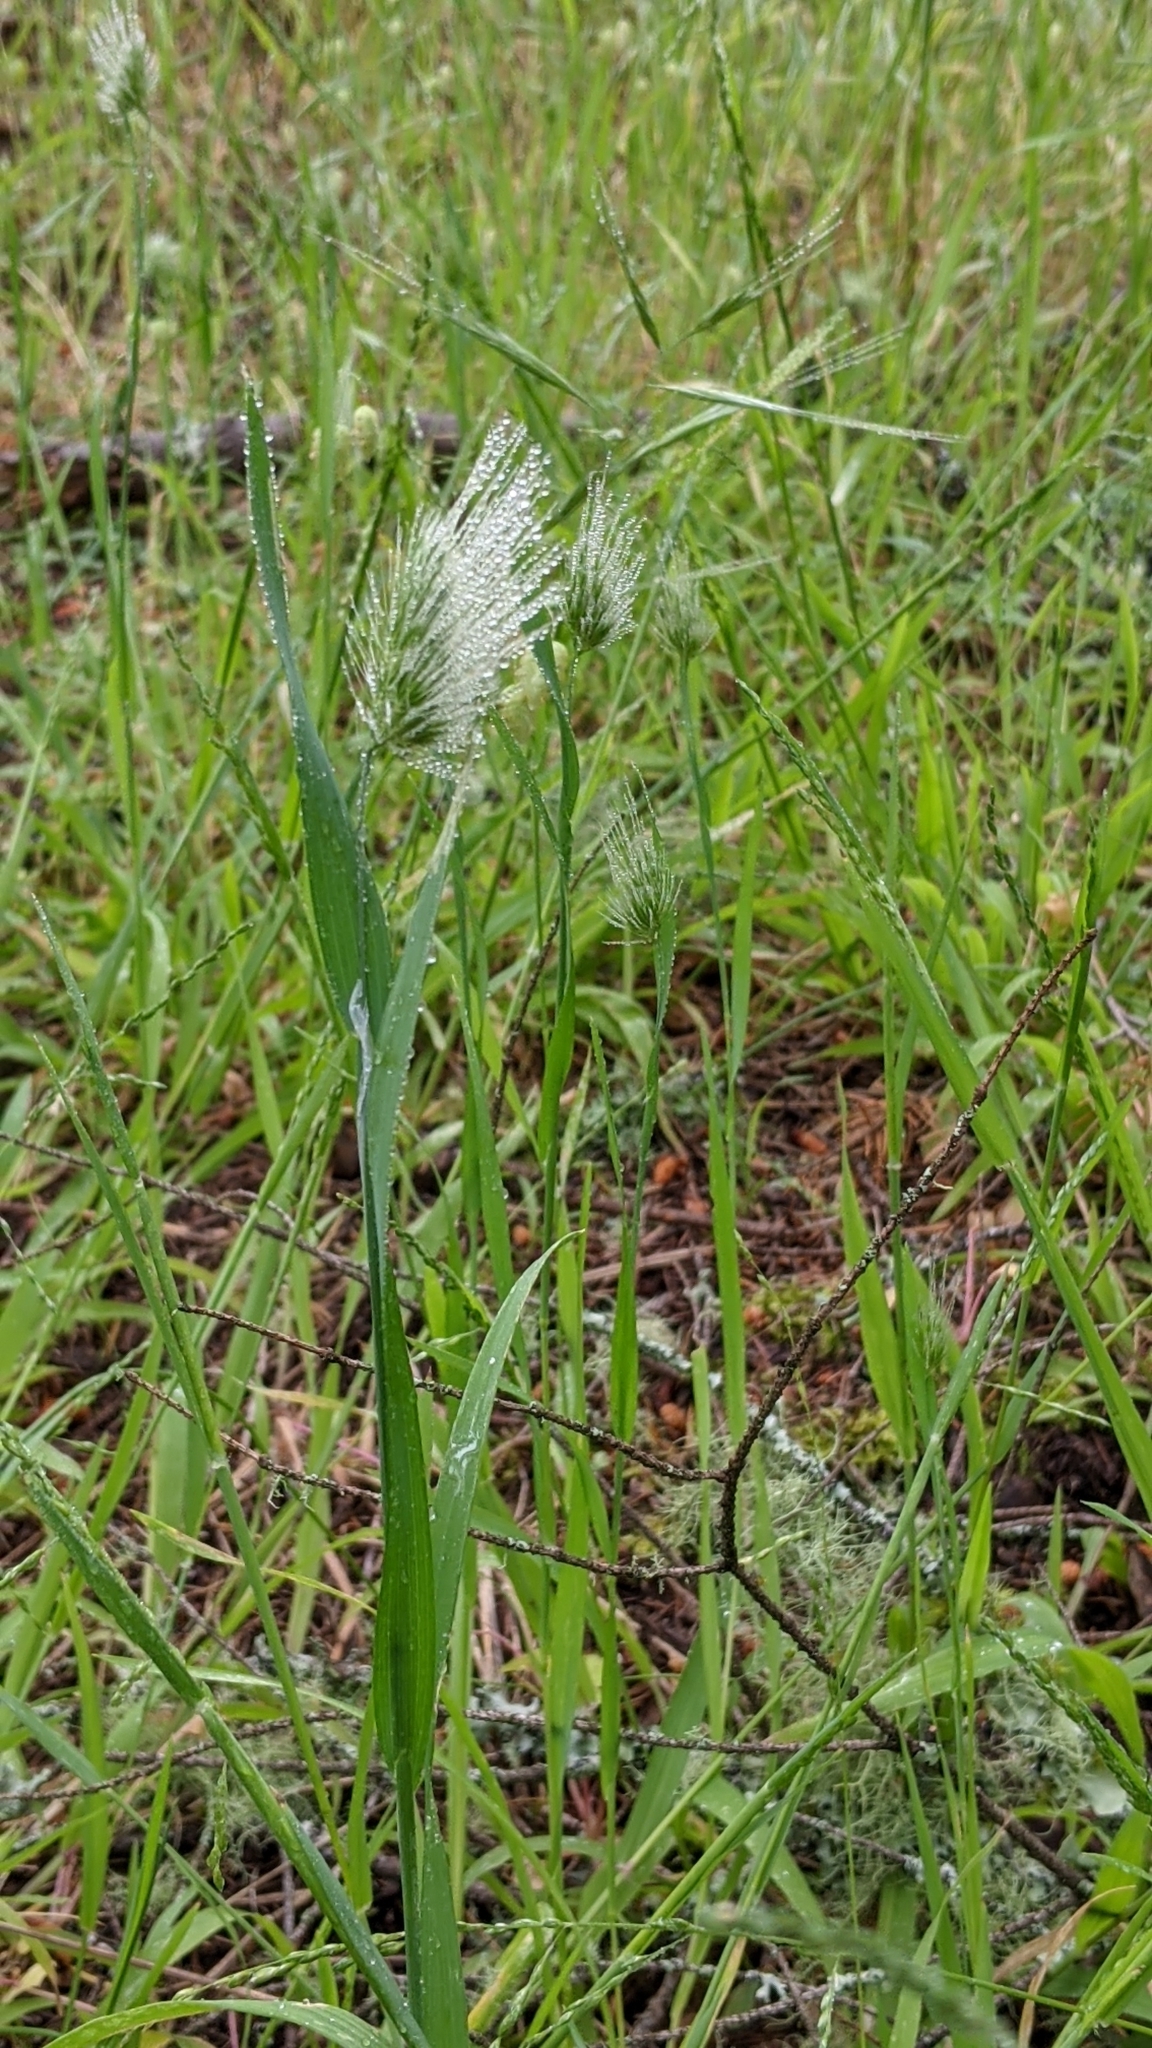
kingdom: Plantae
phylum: Tracheophyta
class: Liliopsida
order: Poales
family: Poaceae
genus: Cynosurus
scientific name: Cynosurus echinatus
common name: Rough dog's-tail
